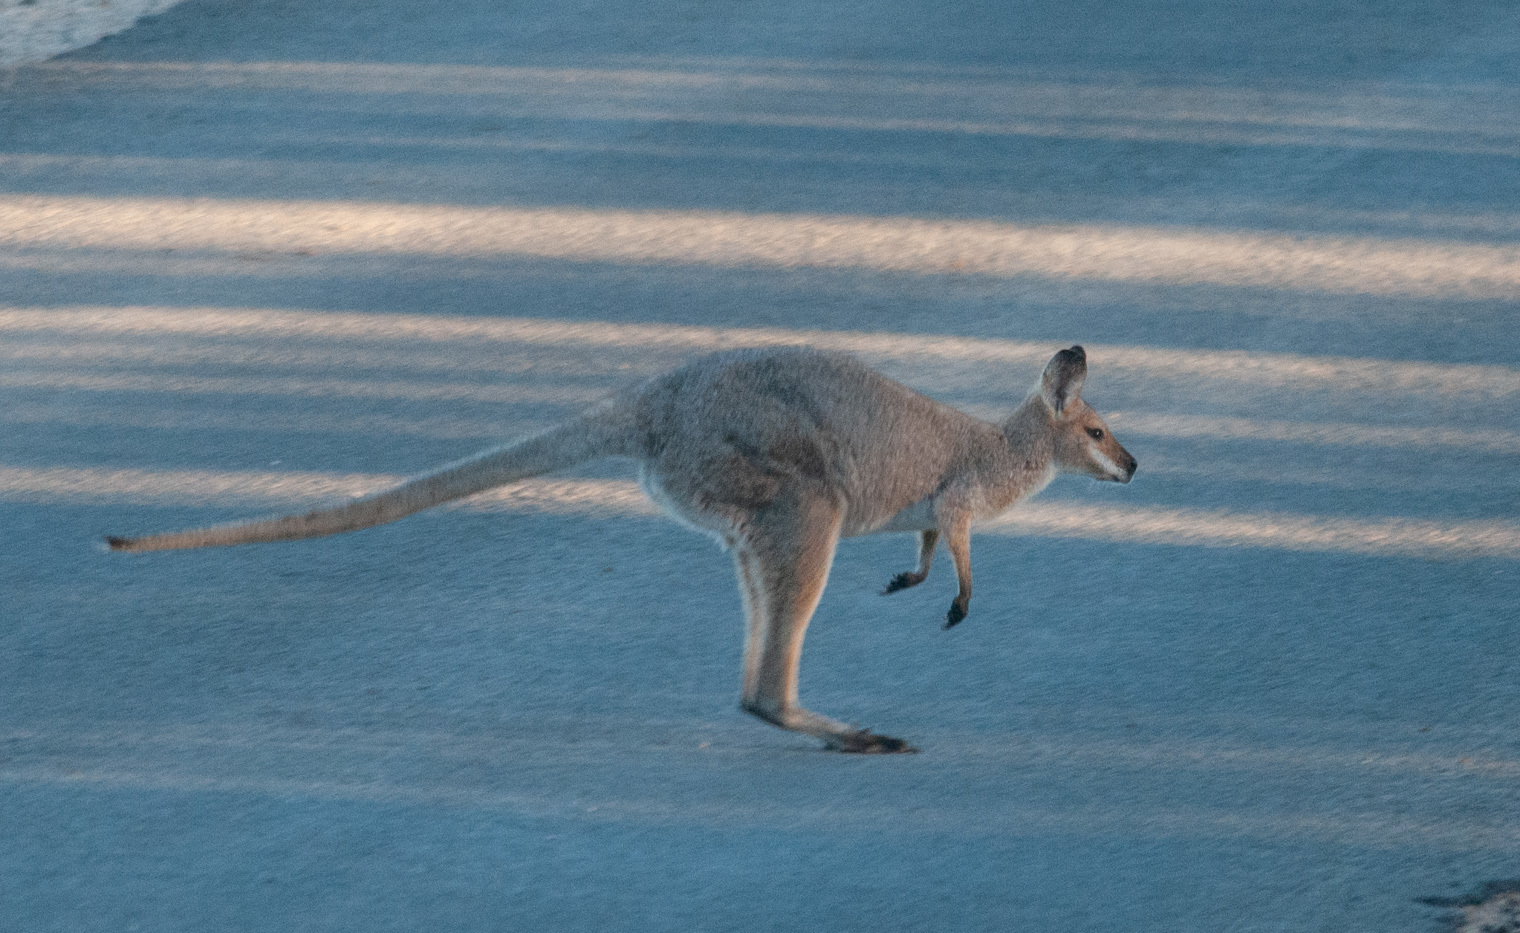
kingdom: Animalia
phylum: Chordata
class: Mammalia
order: Diprotodontia
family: Macropodidae
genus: Notamacropus
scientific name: Notamacropus rufogriseus
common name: Red-necked wallaby
